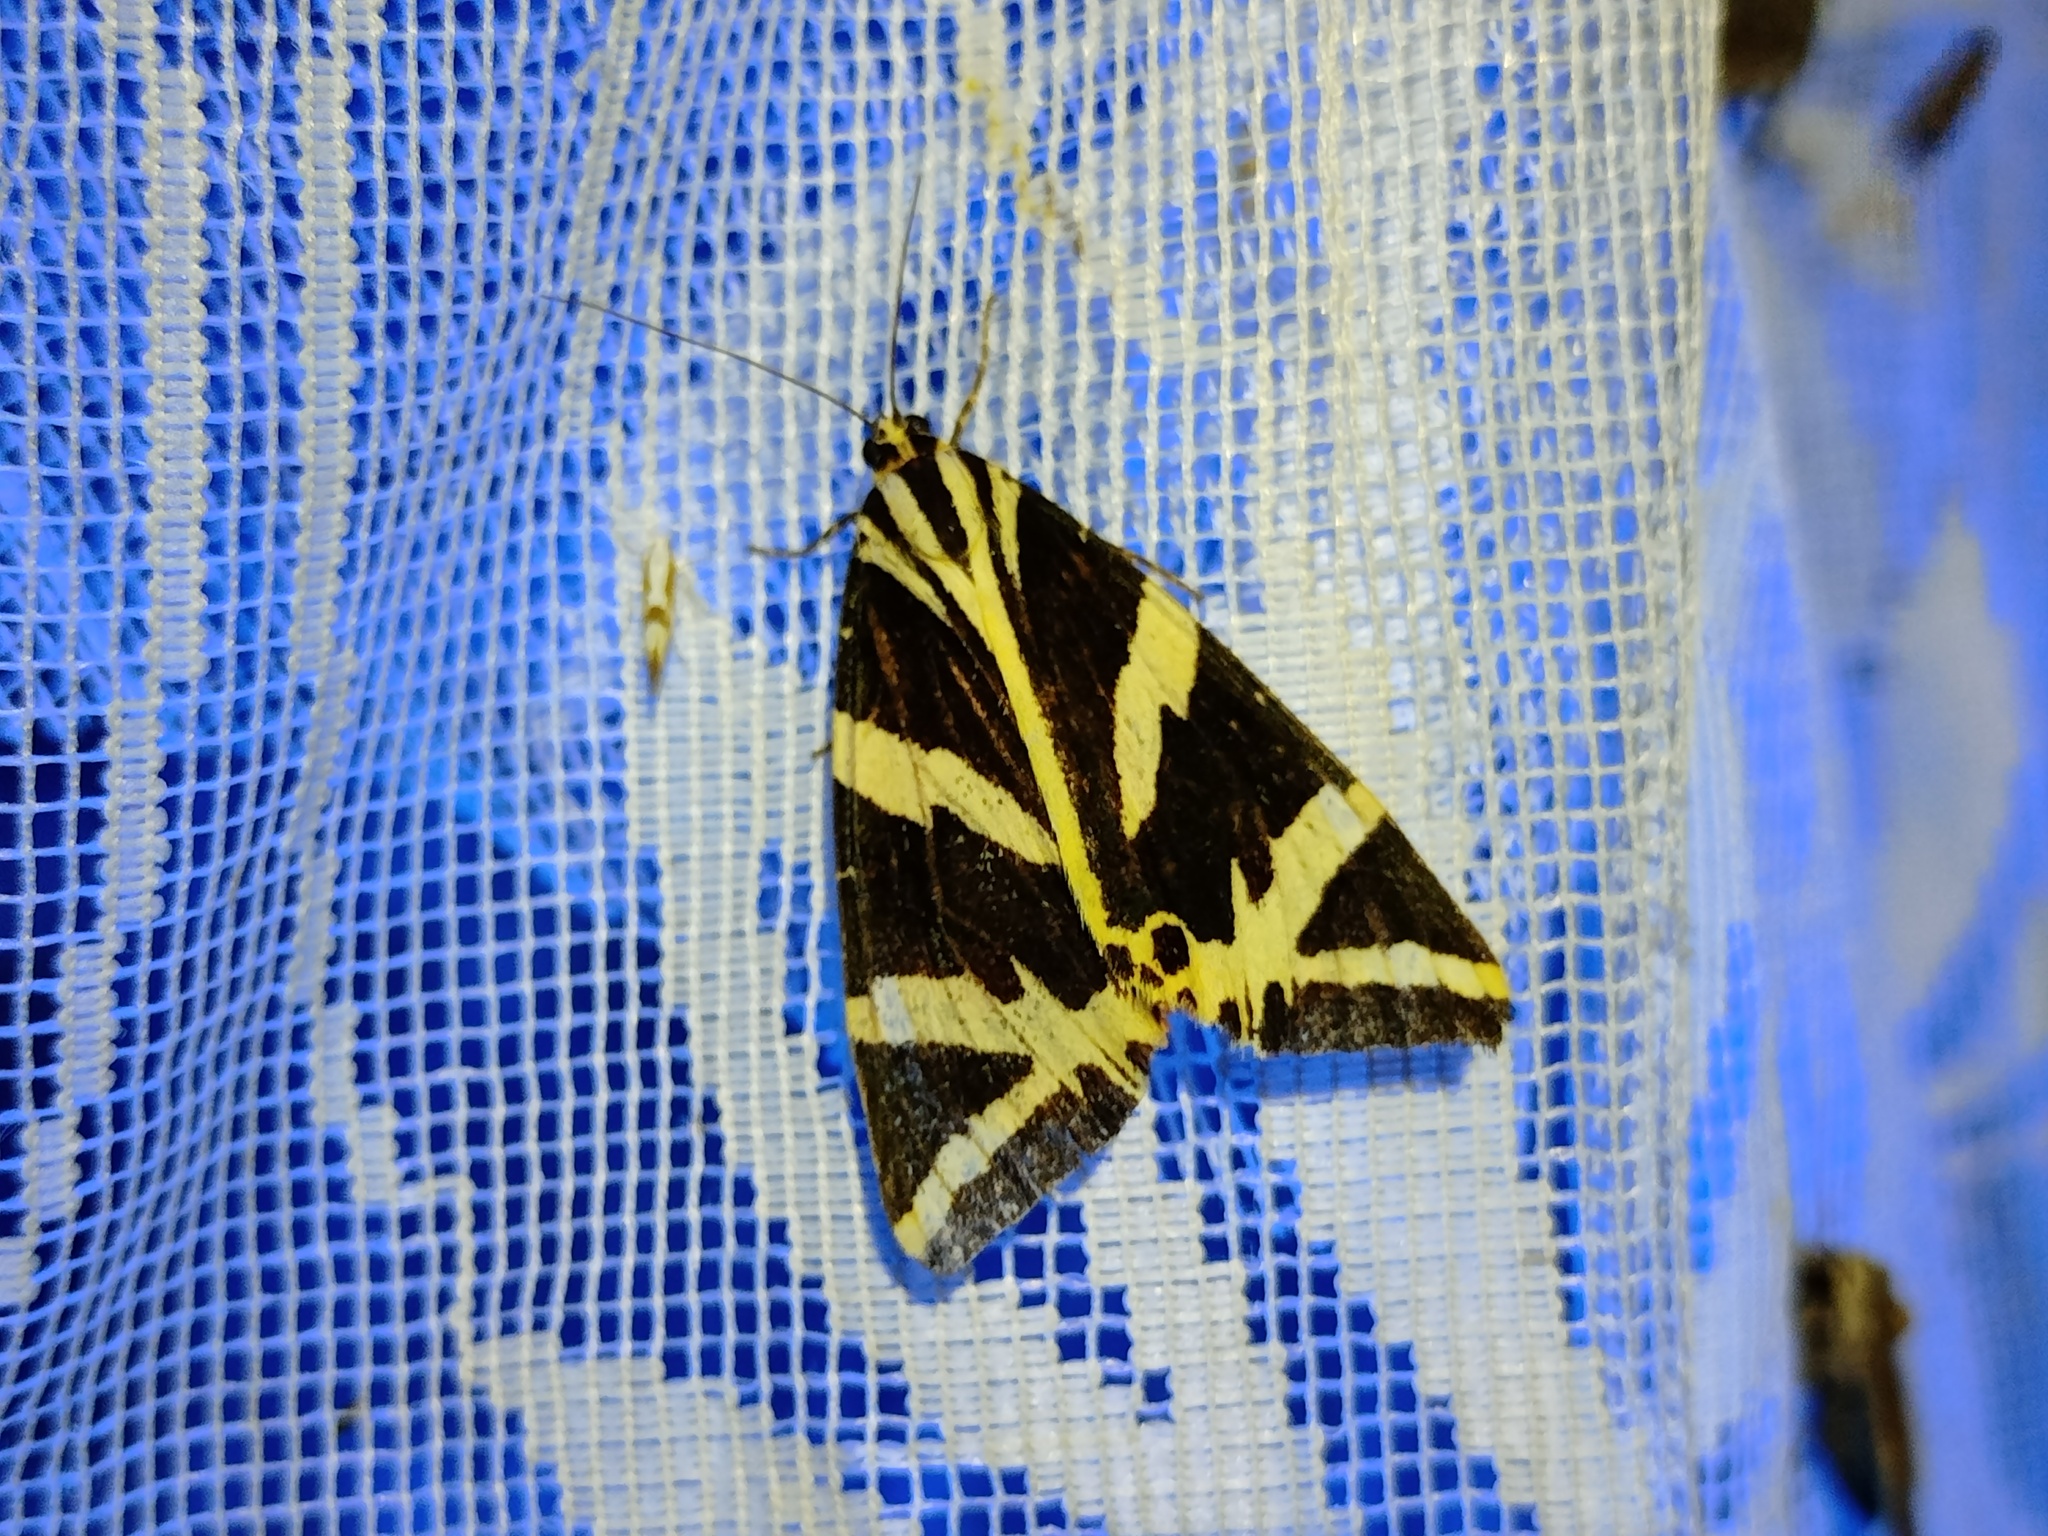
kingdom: Animalia
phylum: Arthropoda
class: Insecta
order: Lepidoptera
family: Erebidae
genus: Euplagia
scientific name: Euplagia quadripunctaria
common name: Jersey tiger
